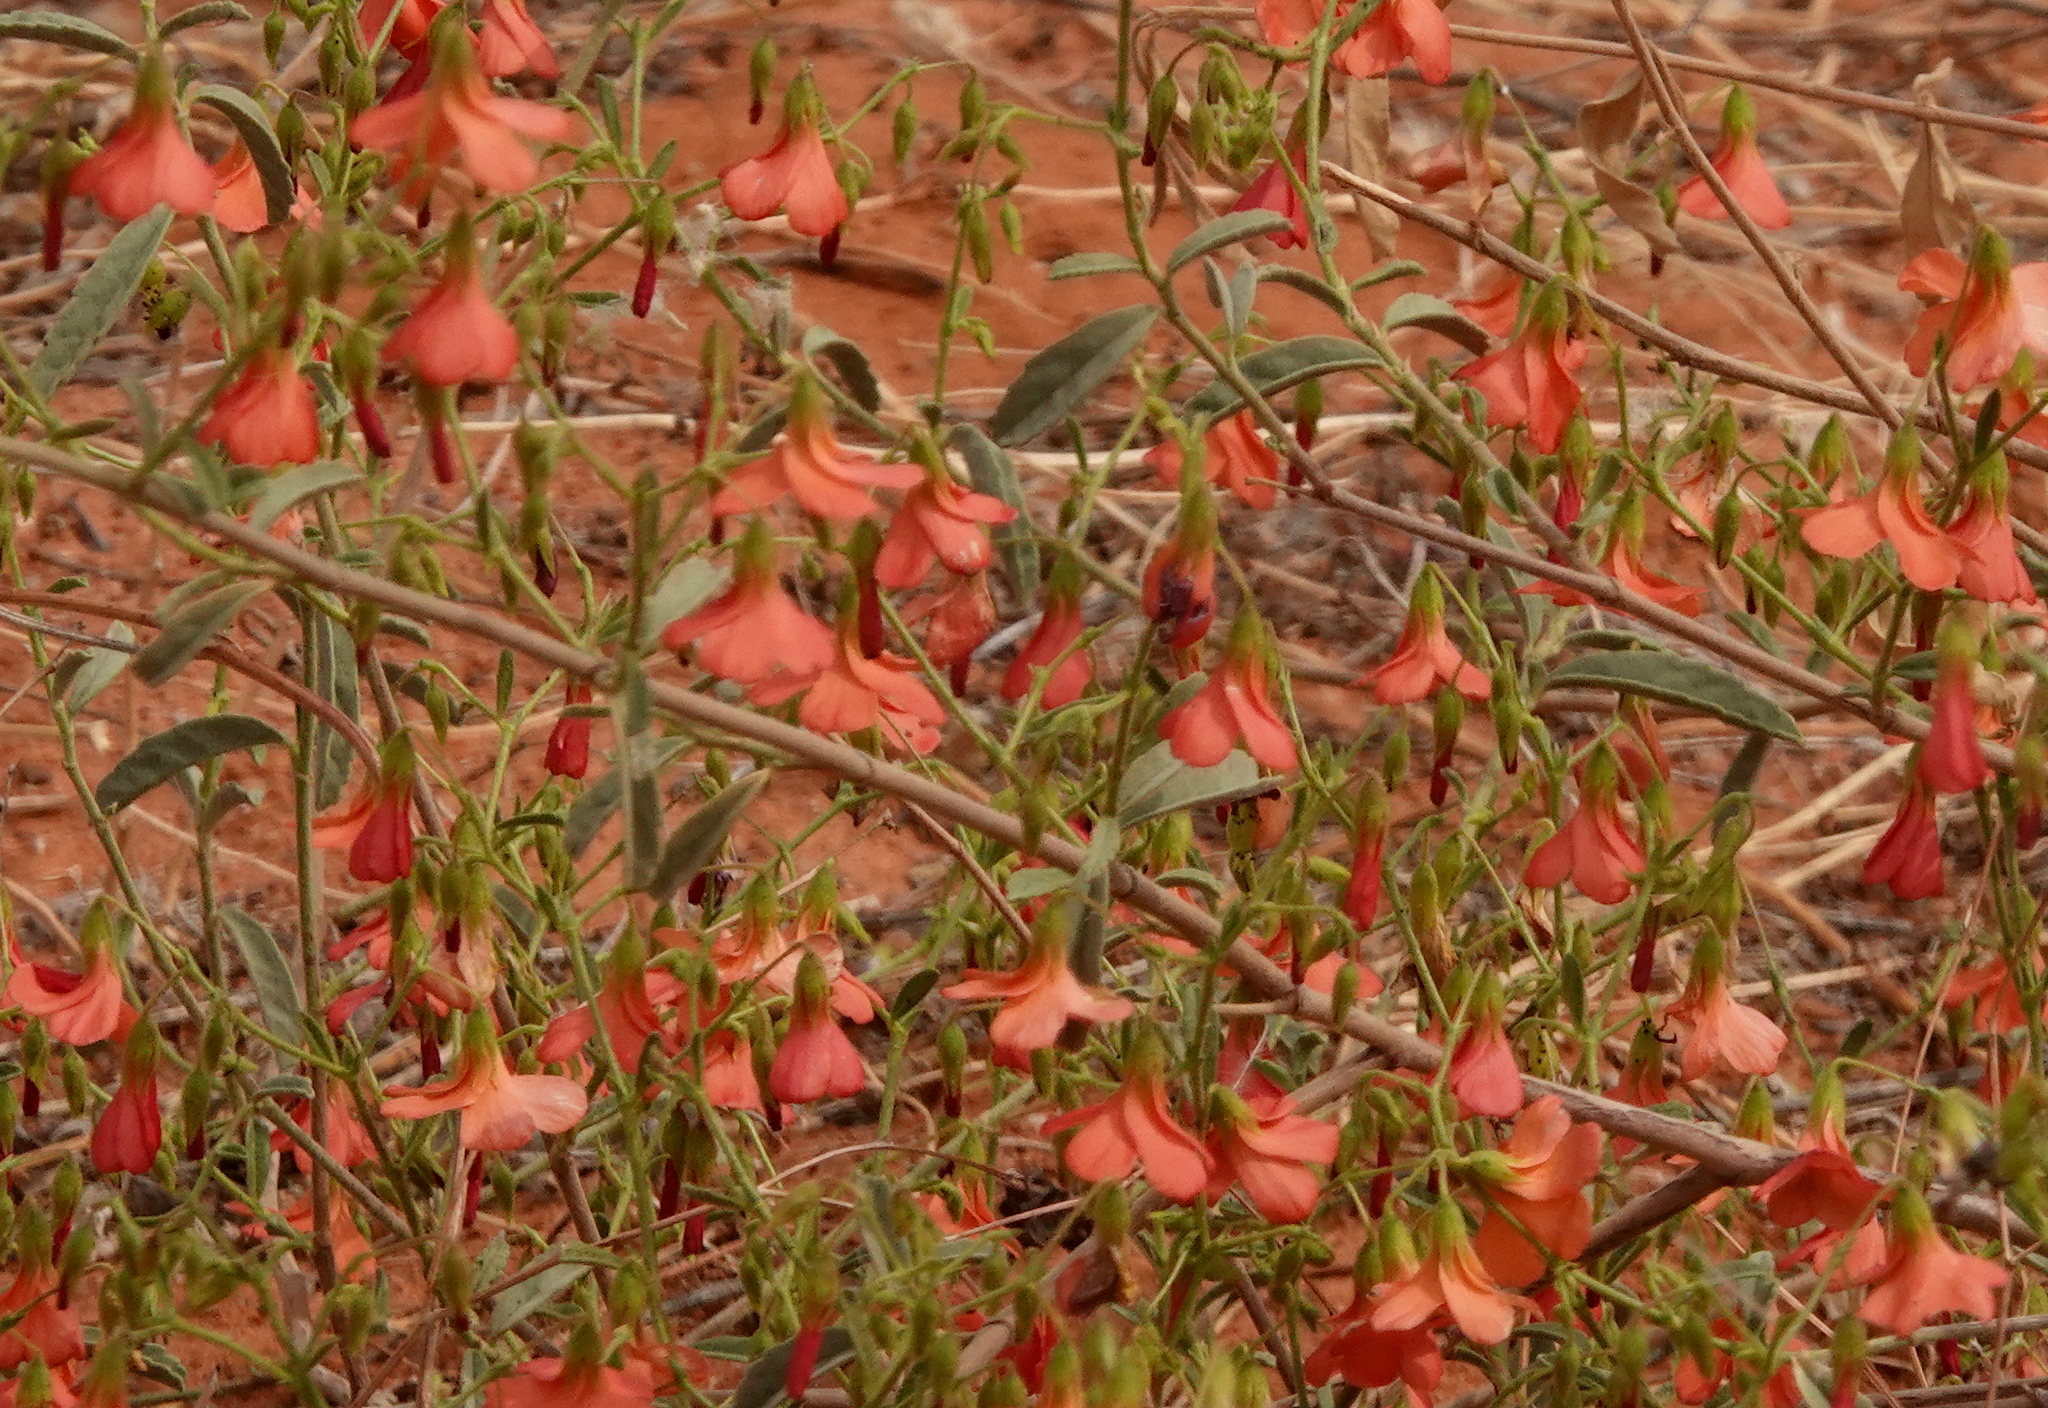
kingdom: Plantae
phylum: Tracheophyta
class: Magnoliopsida
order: Malvales
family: Malvaceae
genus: Hermannia
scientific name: Hermannia modesta
